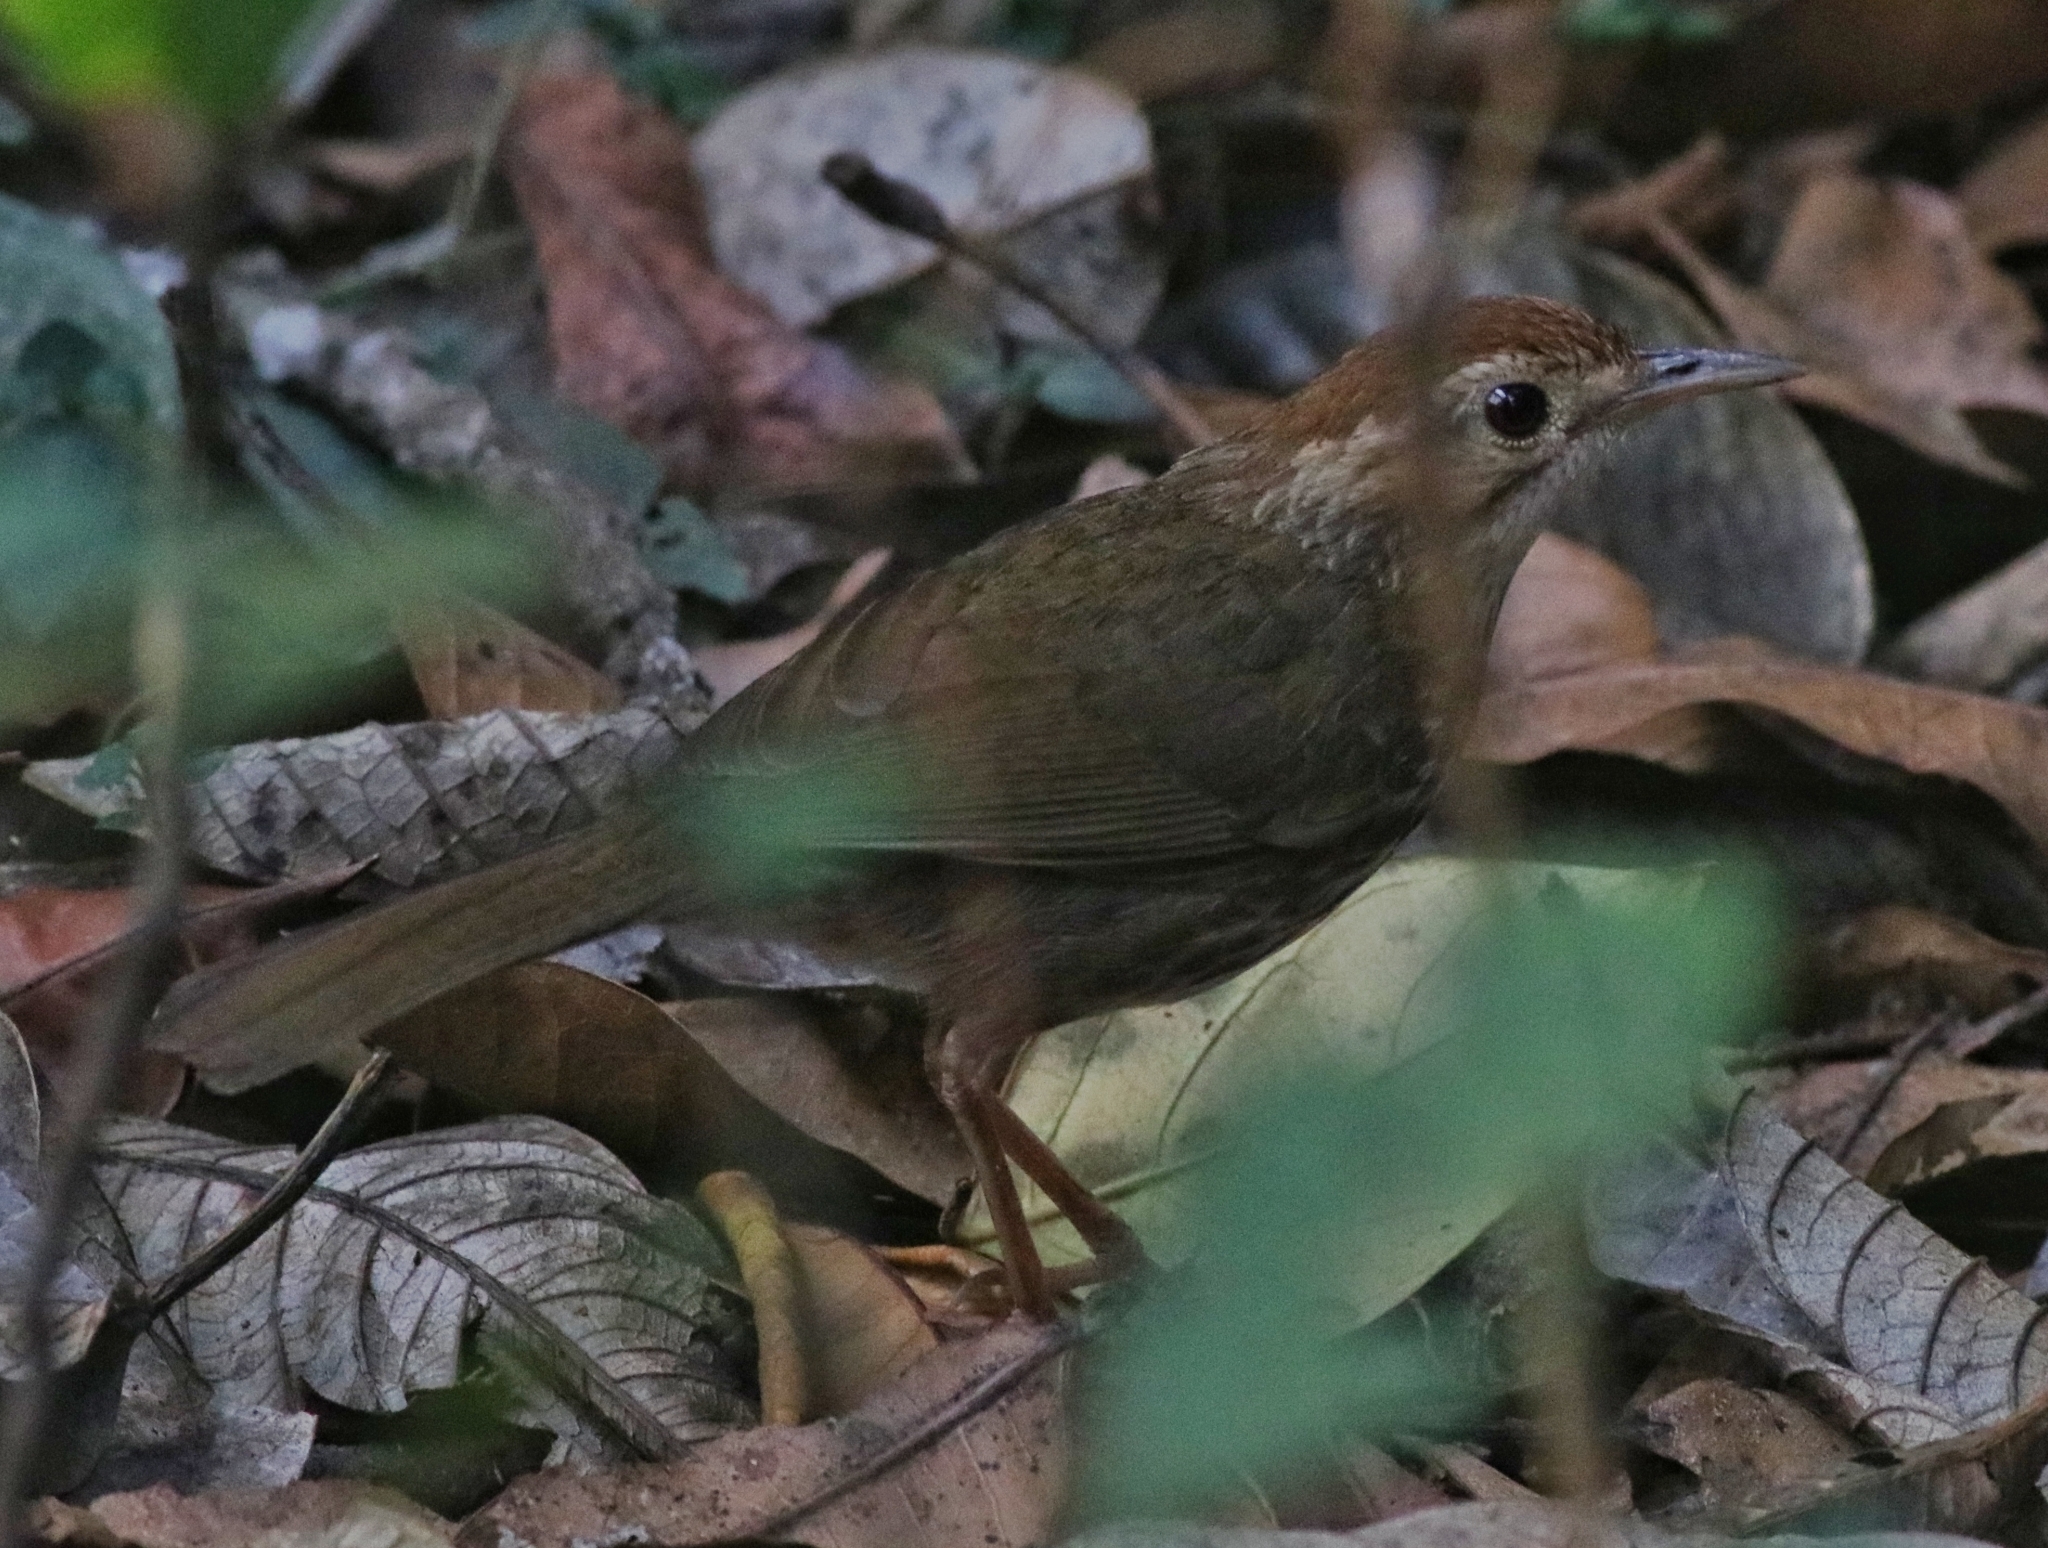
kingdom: Animalia
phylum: Chordata
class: Aves
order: Passeriformes
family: Pellorneidae
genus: Pellorneum
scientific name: Pellorneum ruficeps
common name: Puff-throated babbler
